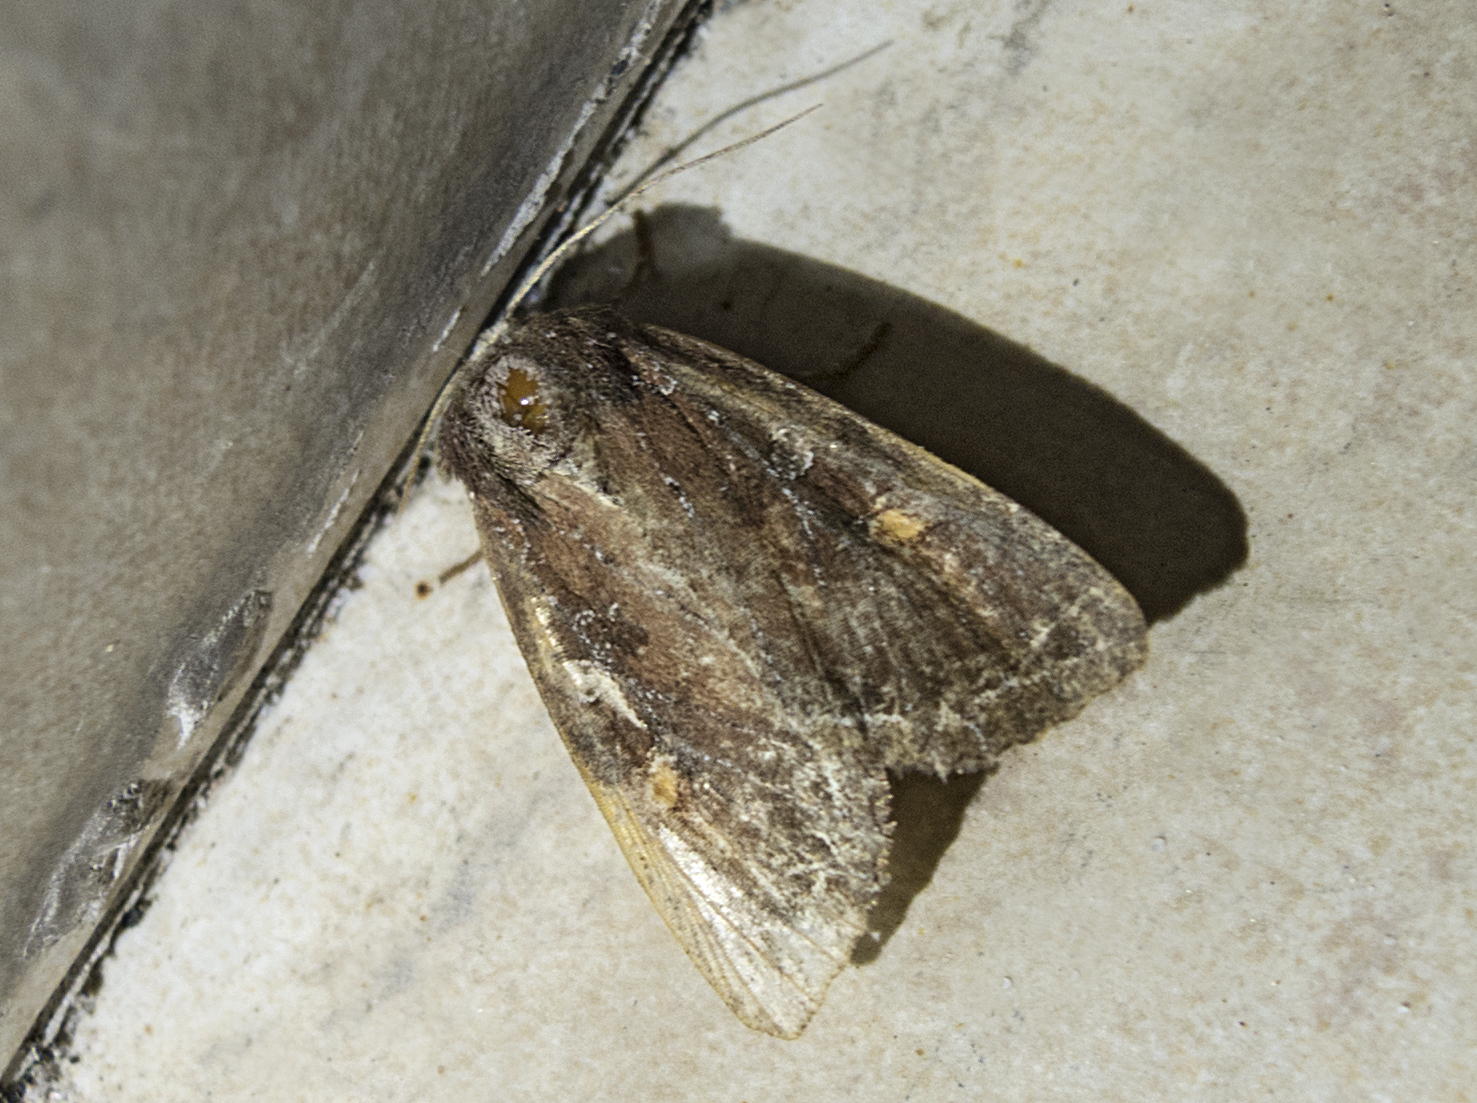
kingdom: Animalia
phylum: Arthropoda
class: Insecta
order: Lepidoptera
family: Noctuidae
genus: Lacanobia
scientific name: Lacanobia oleracea
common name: Bright-line brown-eye
